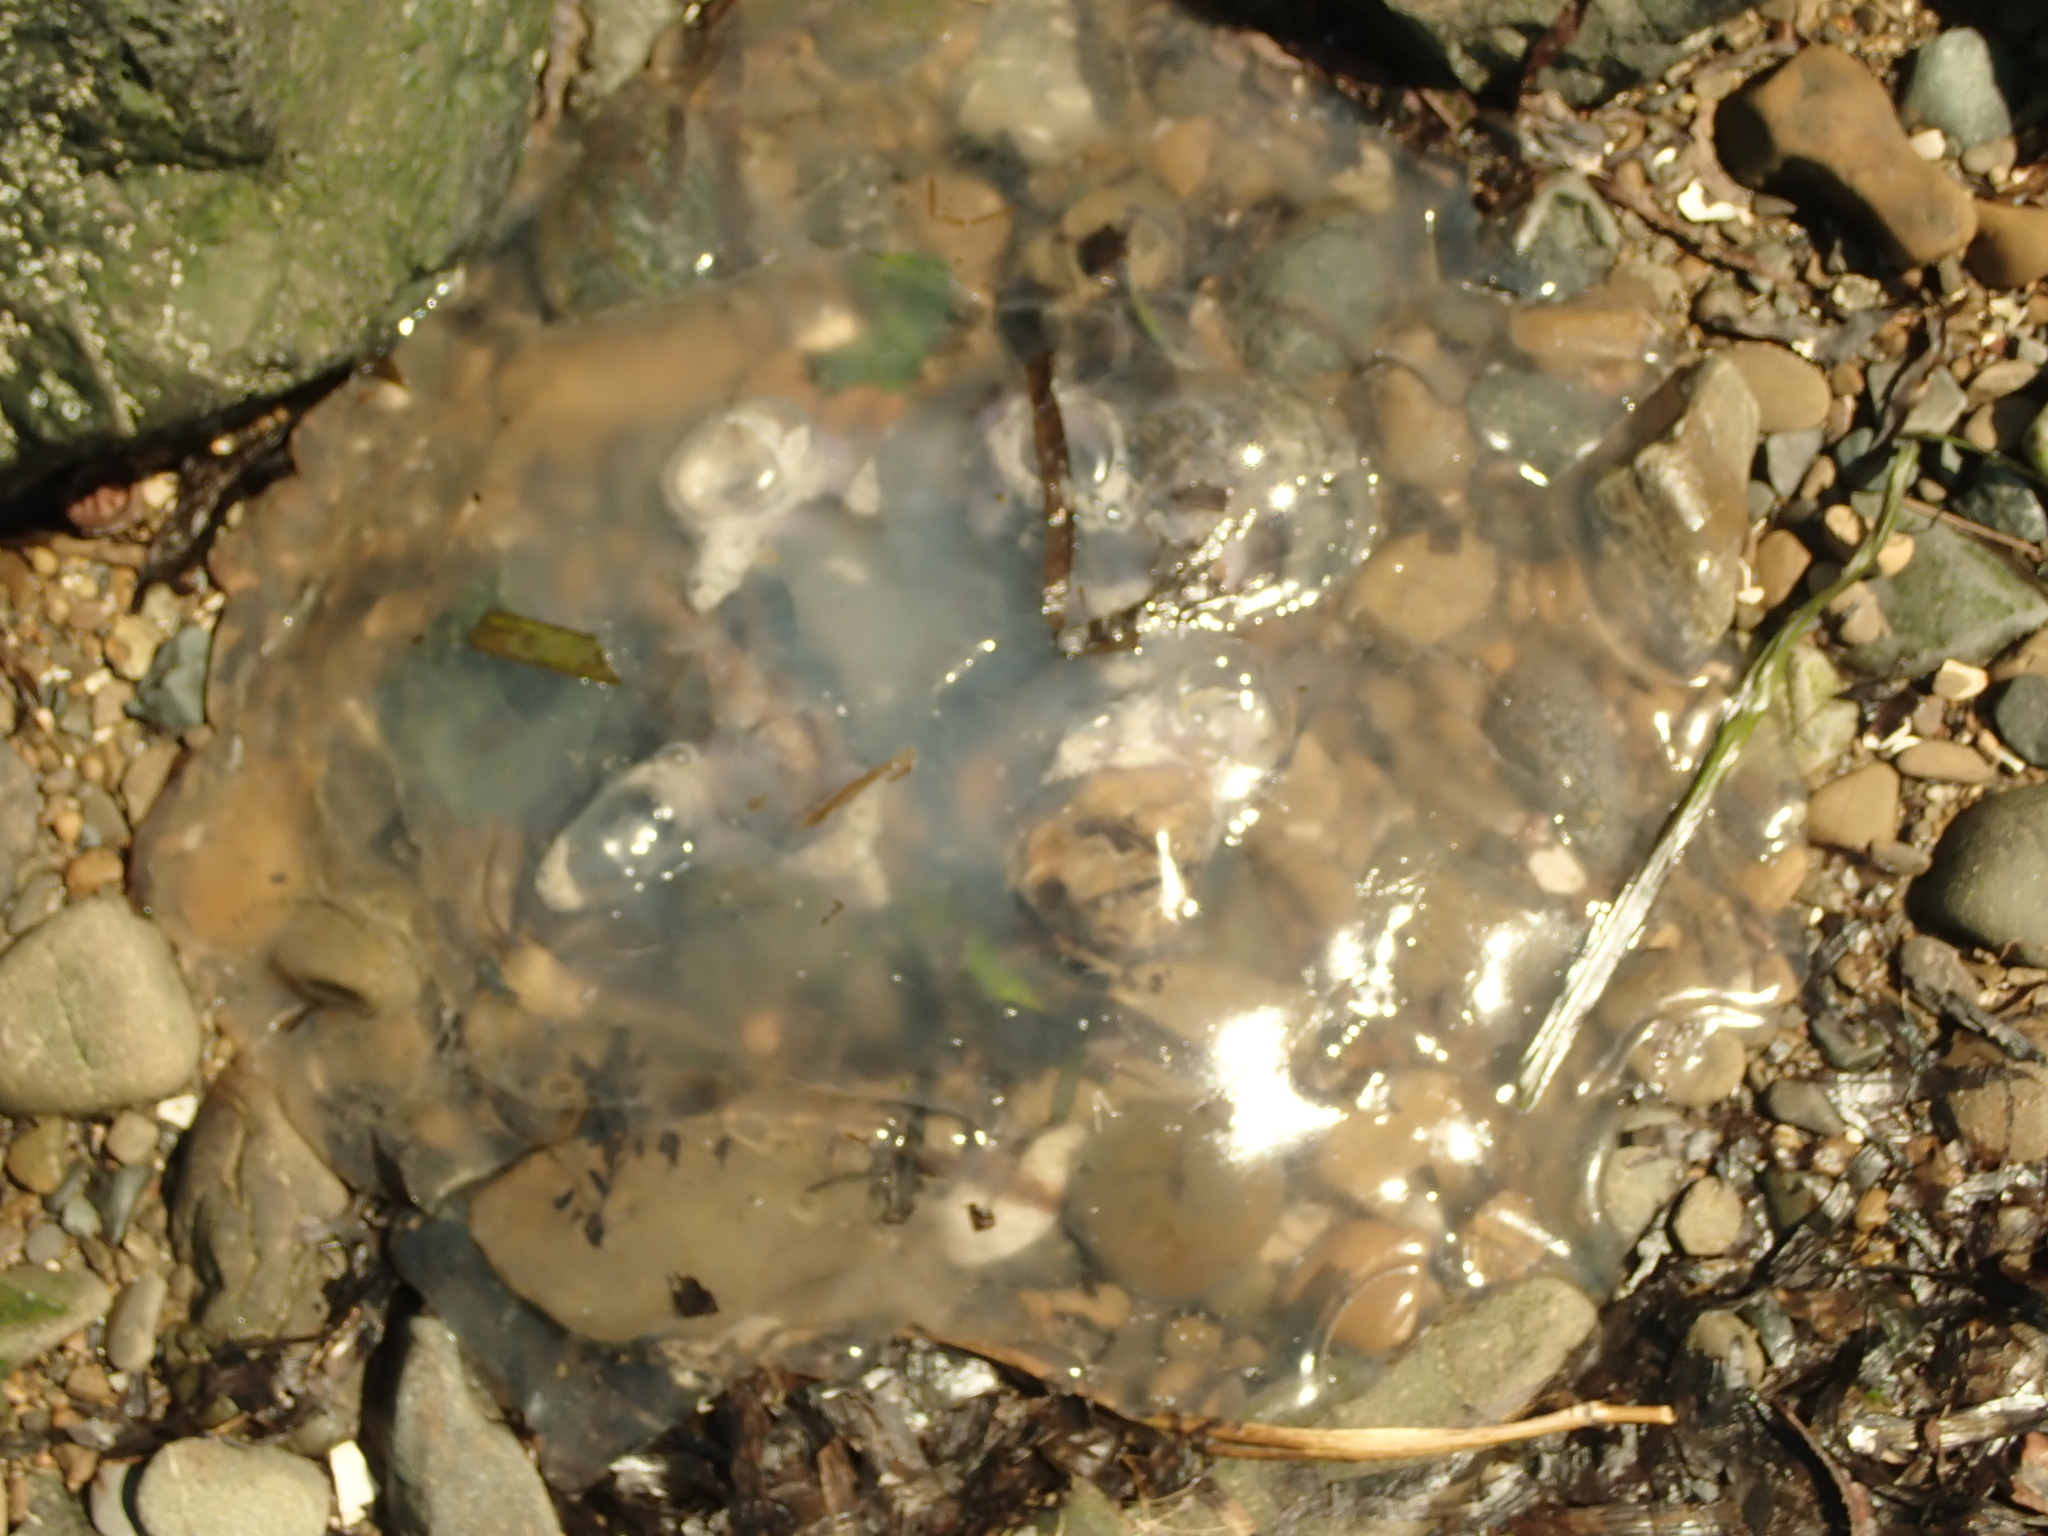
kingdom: Animalia
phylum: Cnidaria
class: Scyphozoa
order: Semaeostomeae
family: Ulmaridae
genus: Aurelia
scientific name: Aurelia labiata
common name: Pacific moon jelly
